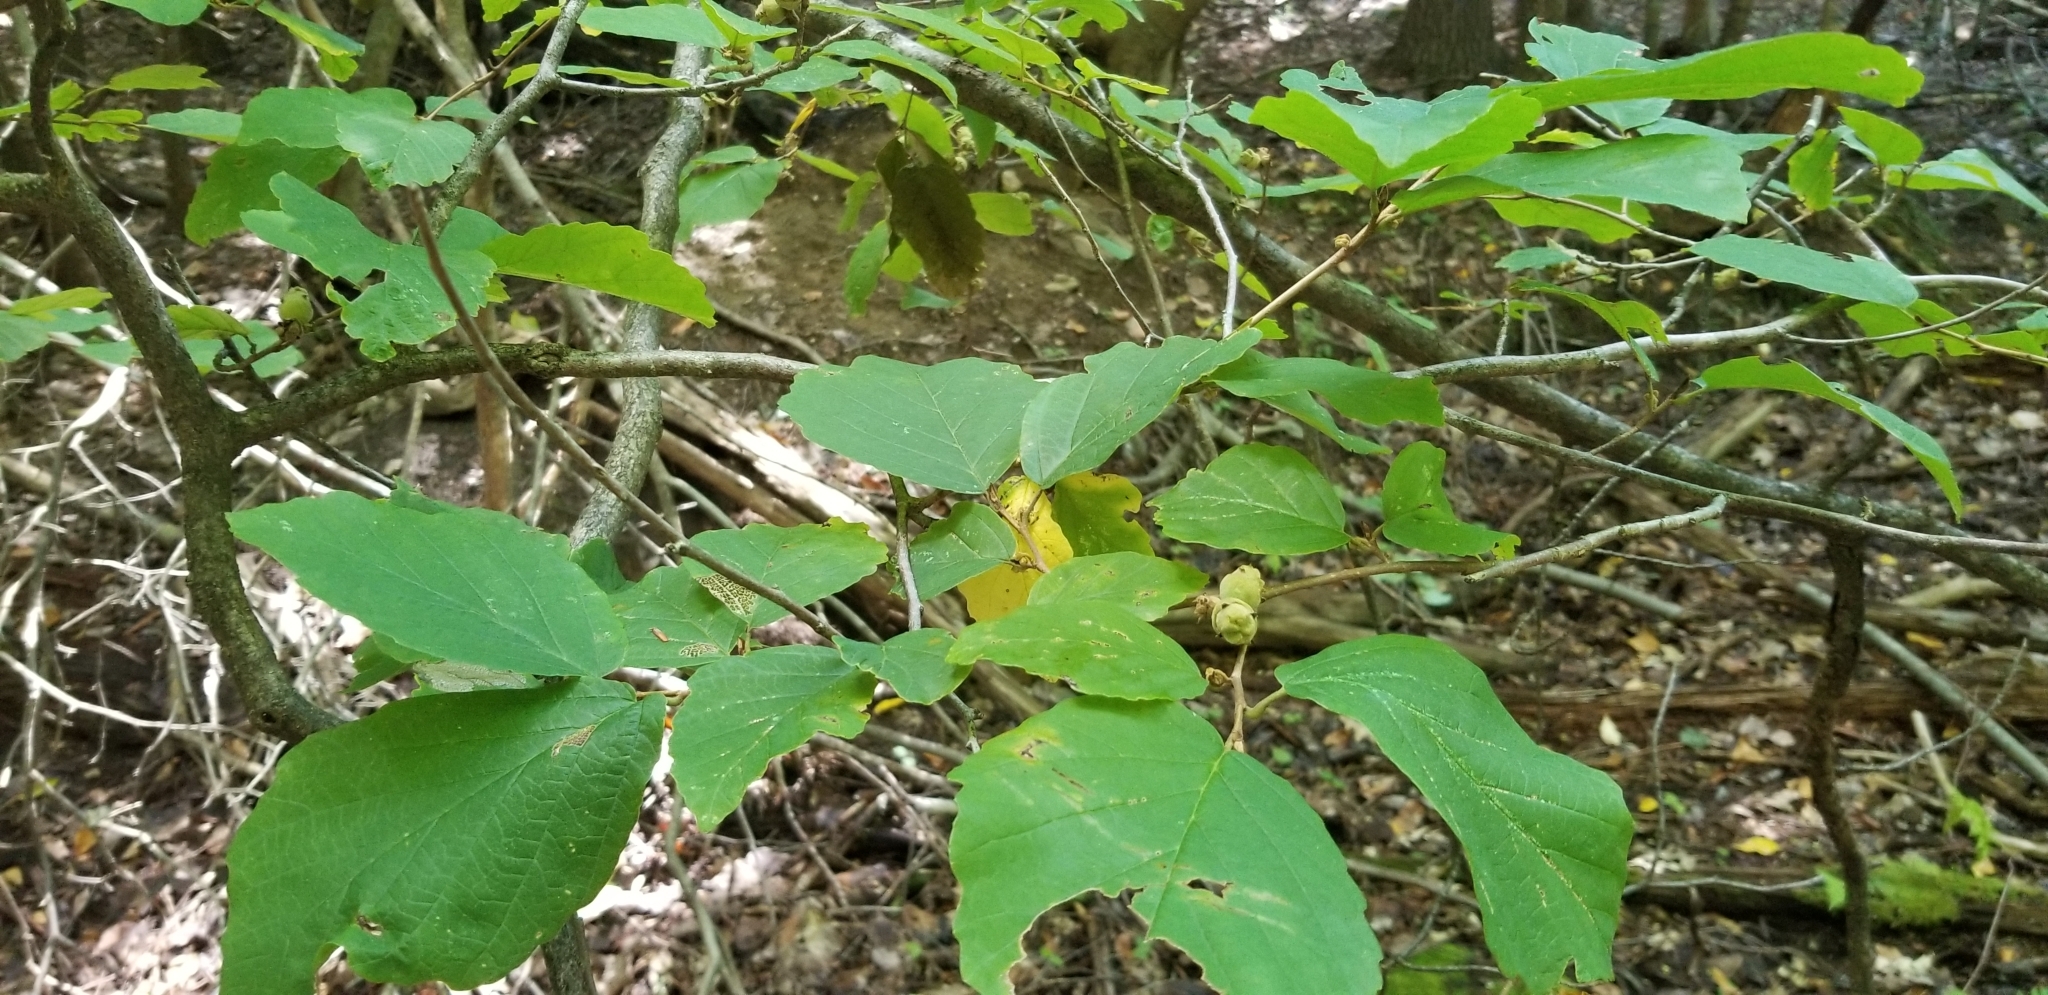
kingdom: Plantae
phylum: Tracheophyta
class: Magnoliopsida
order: Saxifragales
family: Hamamelidaceae
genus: Hamamelis
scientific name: Hamamelis virginiana
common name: Witch-hazel
